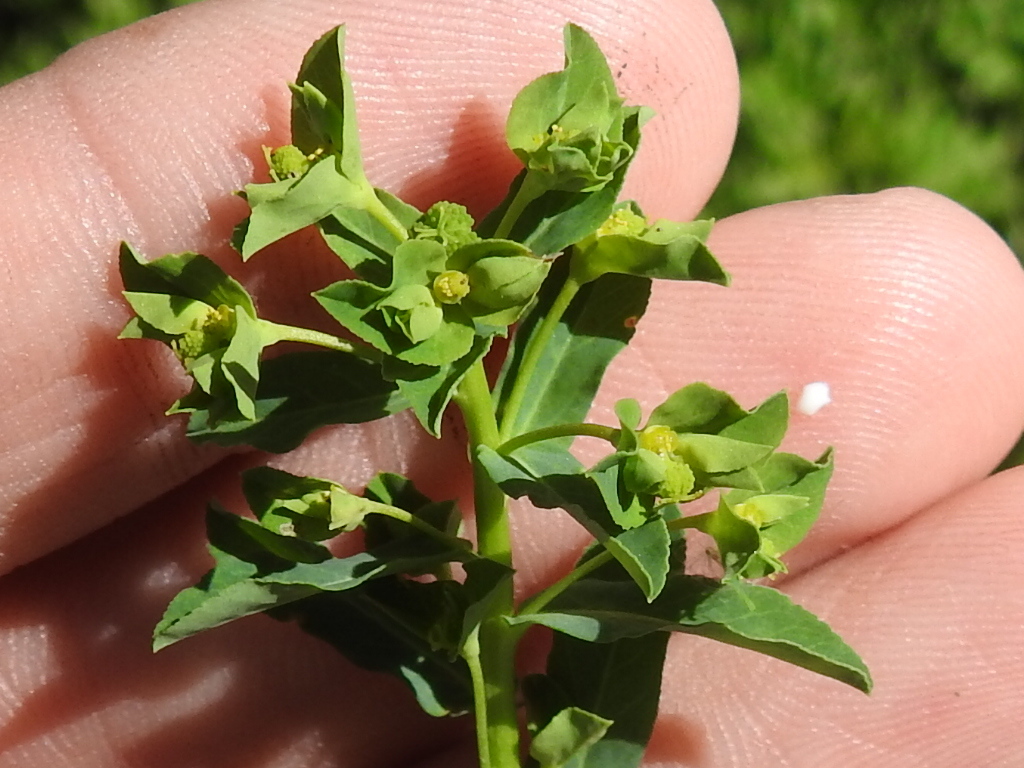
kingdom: Plantae
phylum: Tracheophyta
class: Magnoliopsida
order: Malpighiales
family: Euphorbiaceae
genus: Euphorbia
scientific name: Euphorbia spathulata
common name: Blunt spurge
